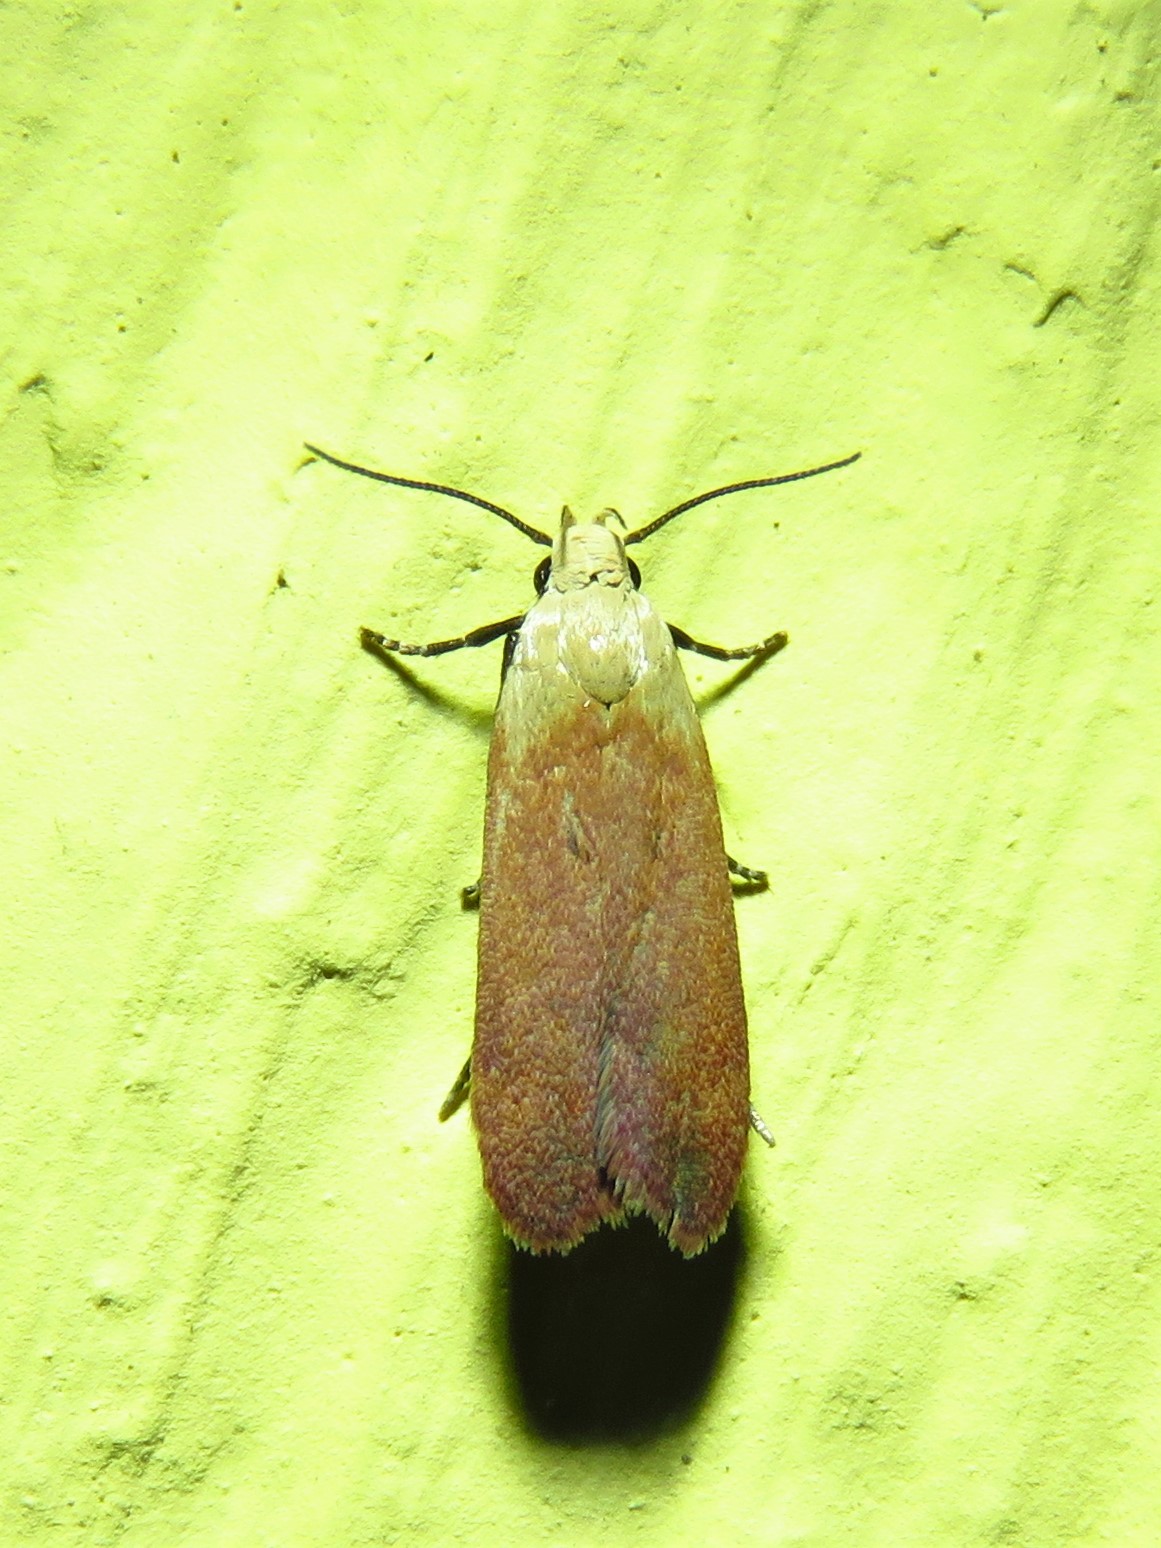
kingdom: Animalia
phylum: Arthropoda
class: Insecta
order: Lepidoptera
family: Gelechiidae
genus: Anacampsis
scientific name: Anacampsis fullonella
